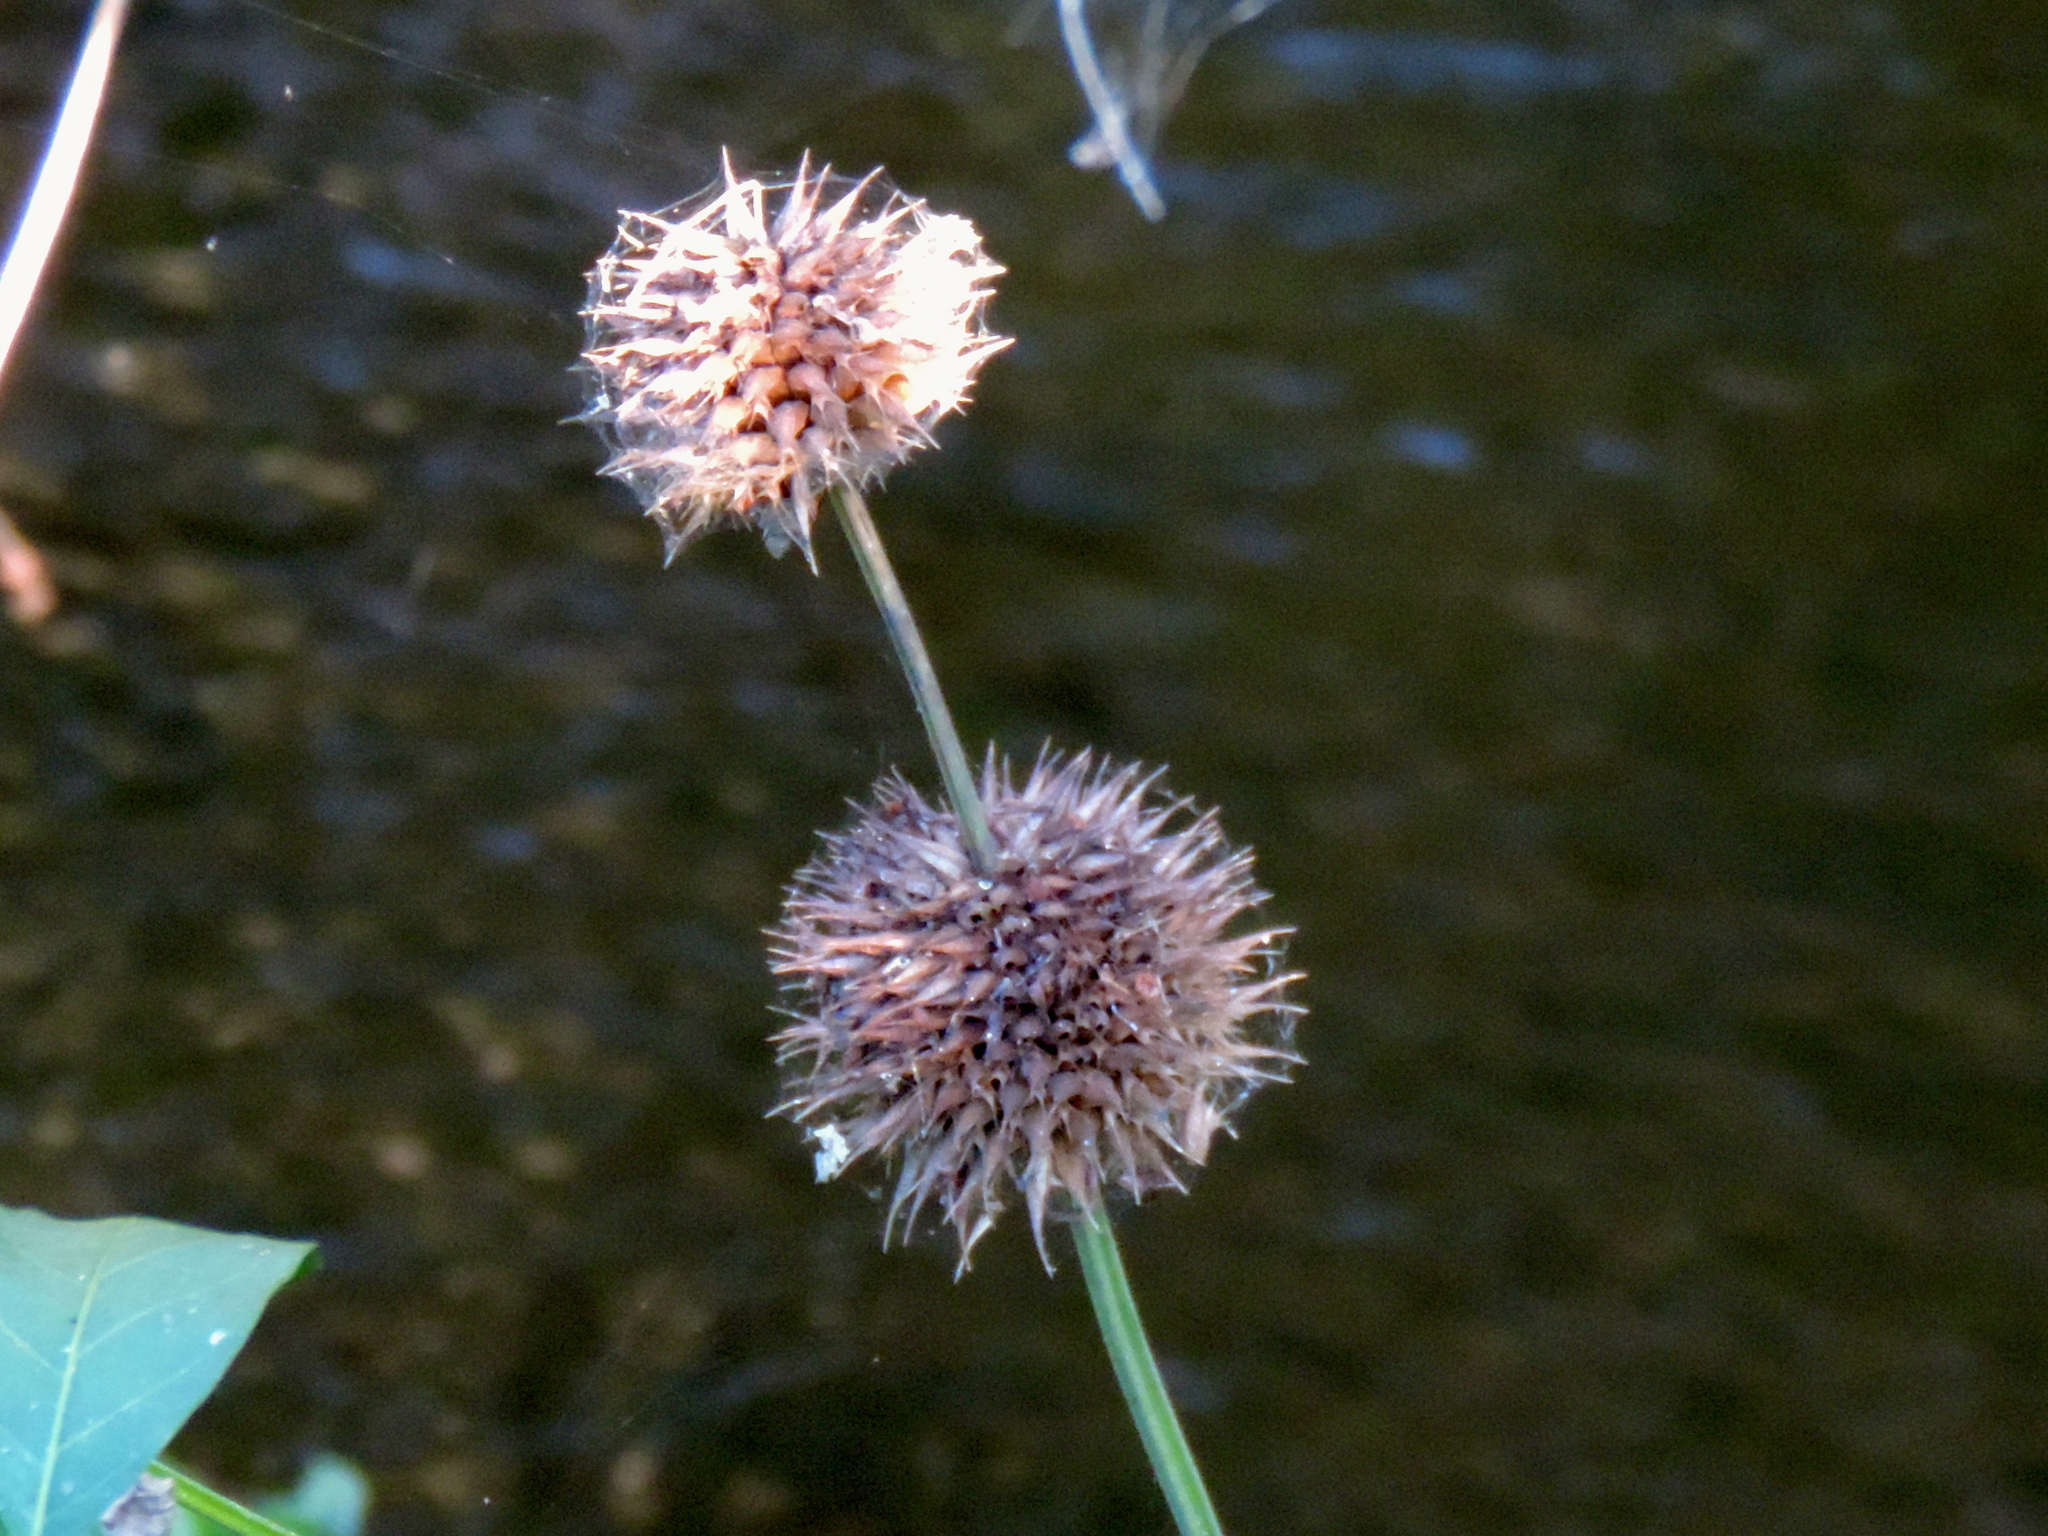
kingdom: Plantae
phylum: Tracheophyta
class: Magnoliopsida
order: Lamiales
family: Lamiaceae
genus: Leonotis
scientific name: Leonotis nepetifolia
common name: Christmas candlestick
